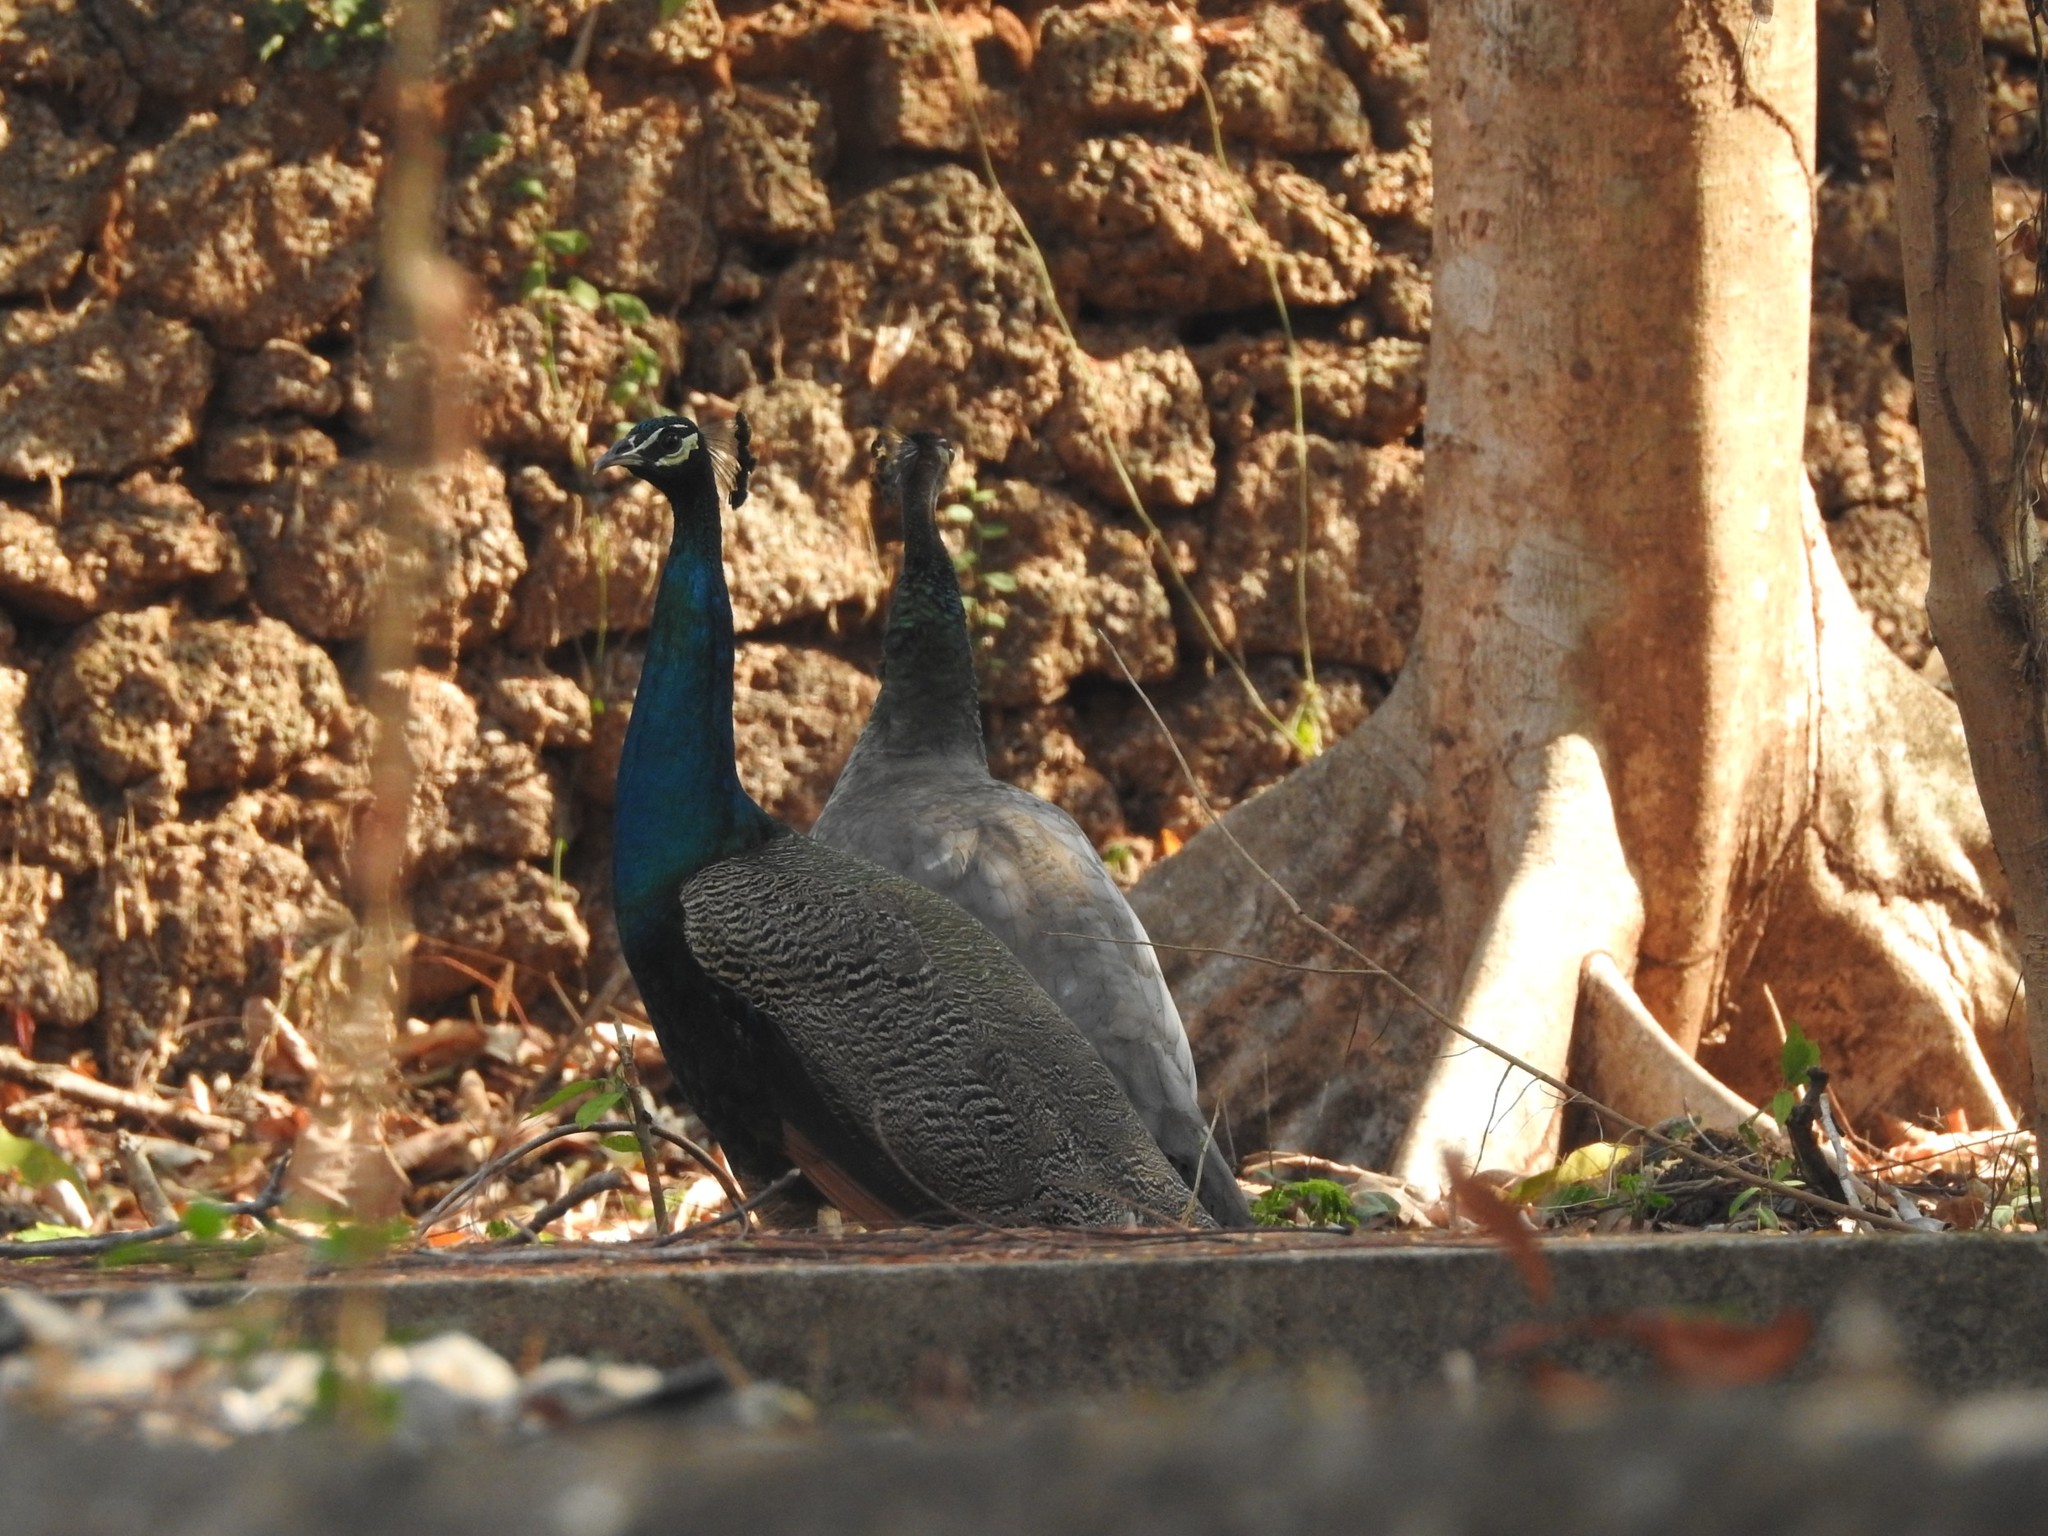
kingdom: Animalia
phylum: Chordata
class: Aves
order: Galliformes
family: Phasianidae
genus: Pavo
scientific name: Pavo cristatus
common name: Indian peafowl
